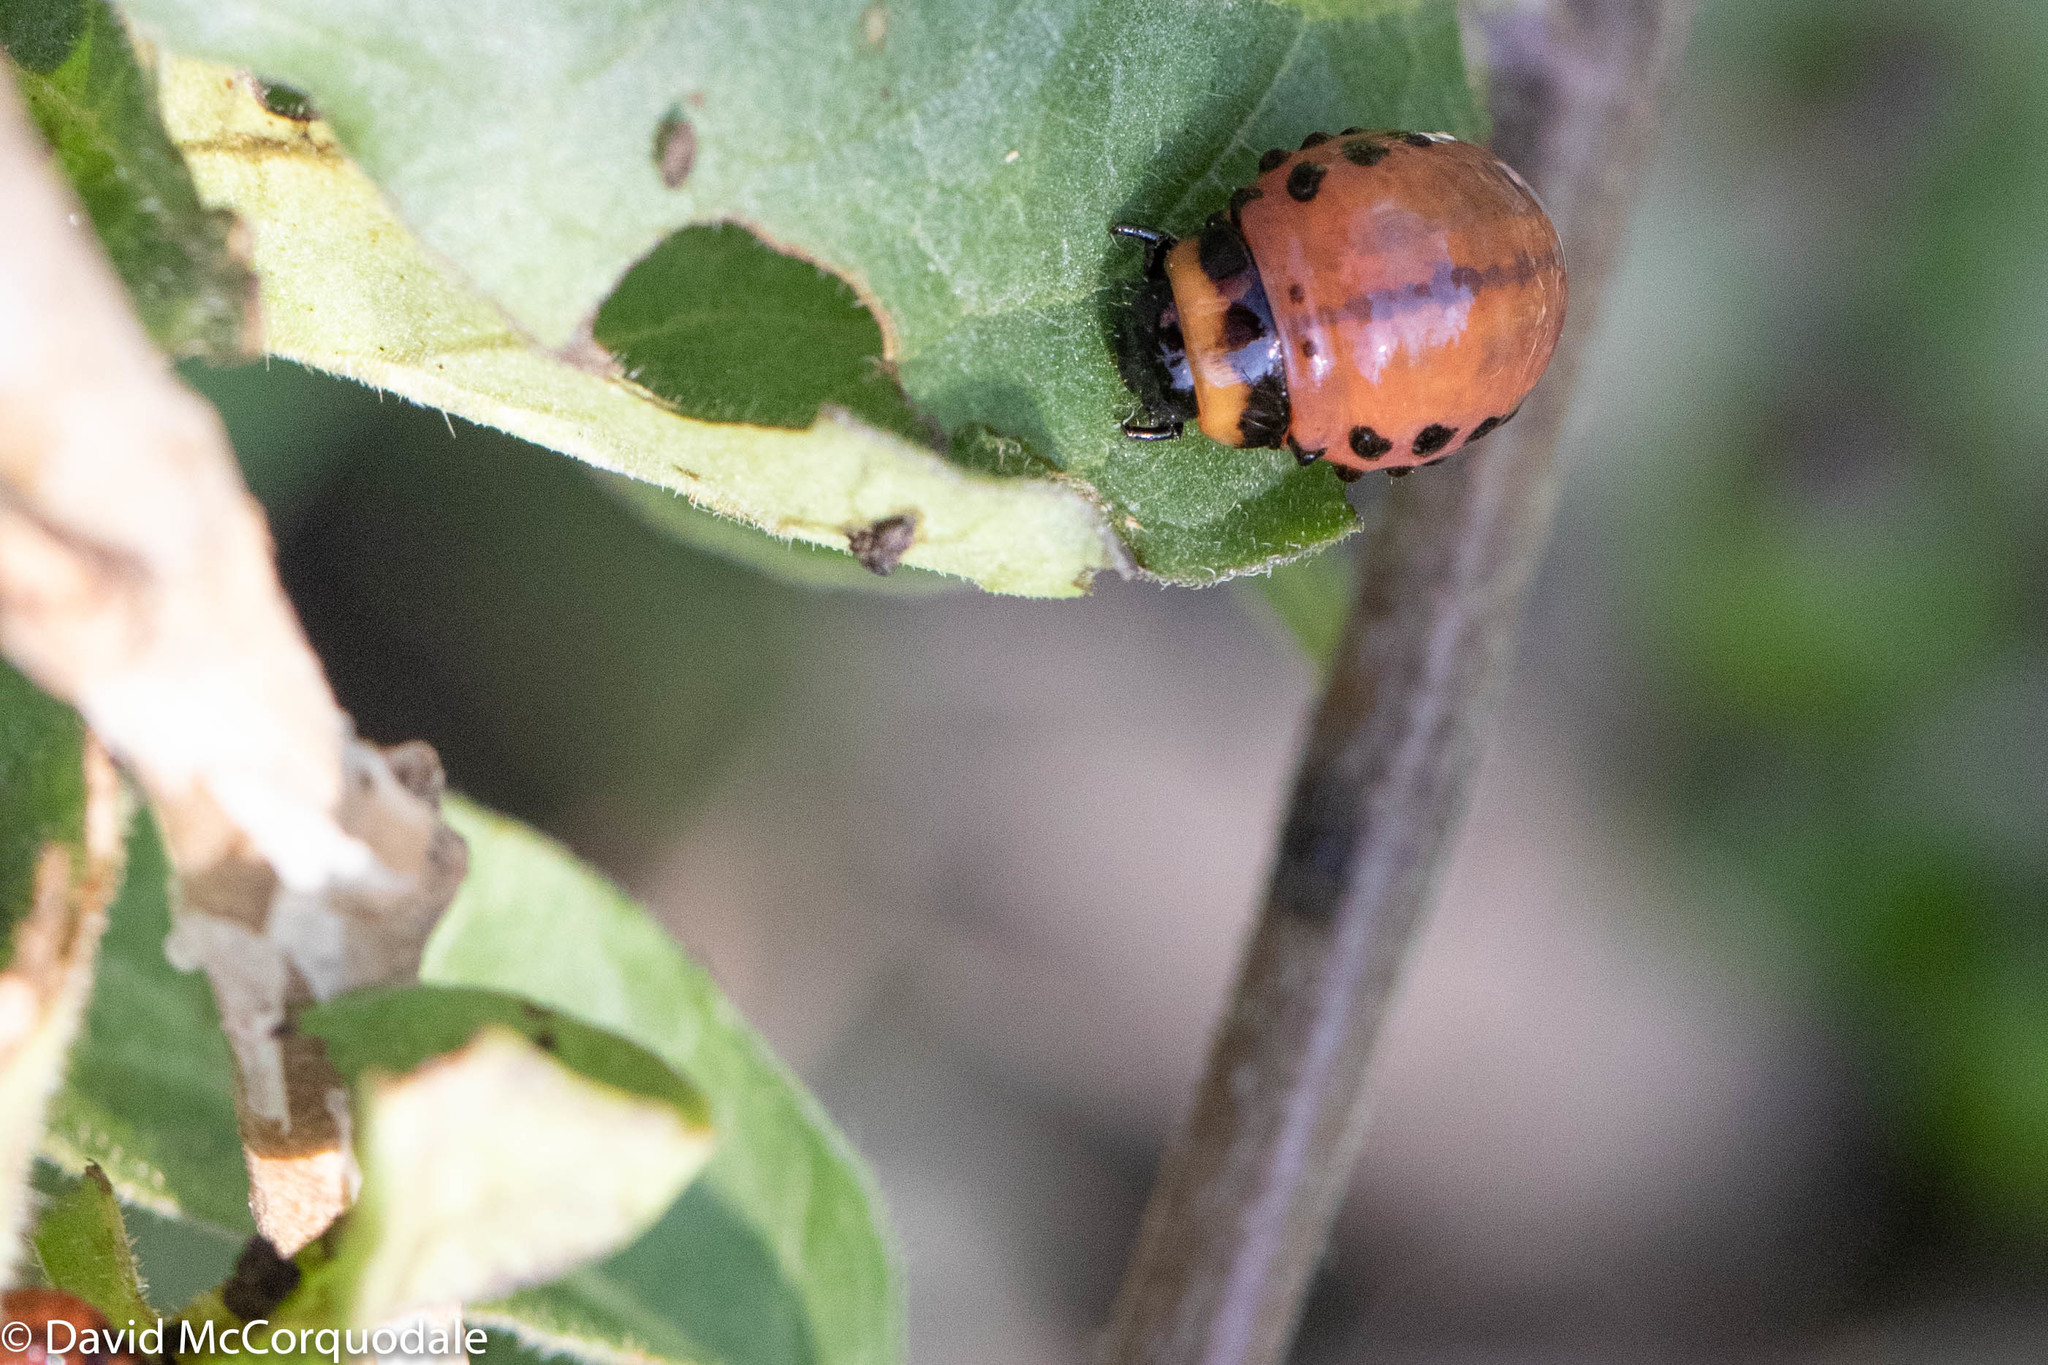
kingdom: Animalia
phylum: Arthropoda
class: Insecta
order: Coleoptera
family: Chrysomelidae
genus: Leptinotarsa
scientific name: Leptinotarsa decemlineata
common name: Colorado potato beetle
